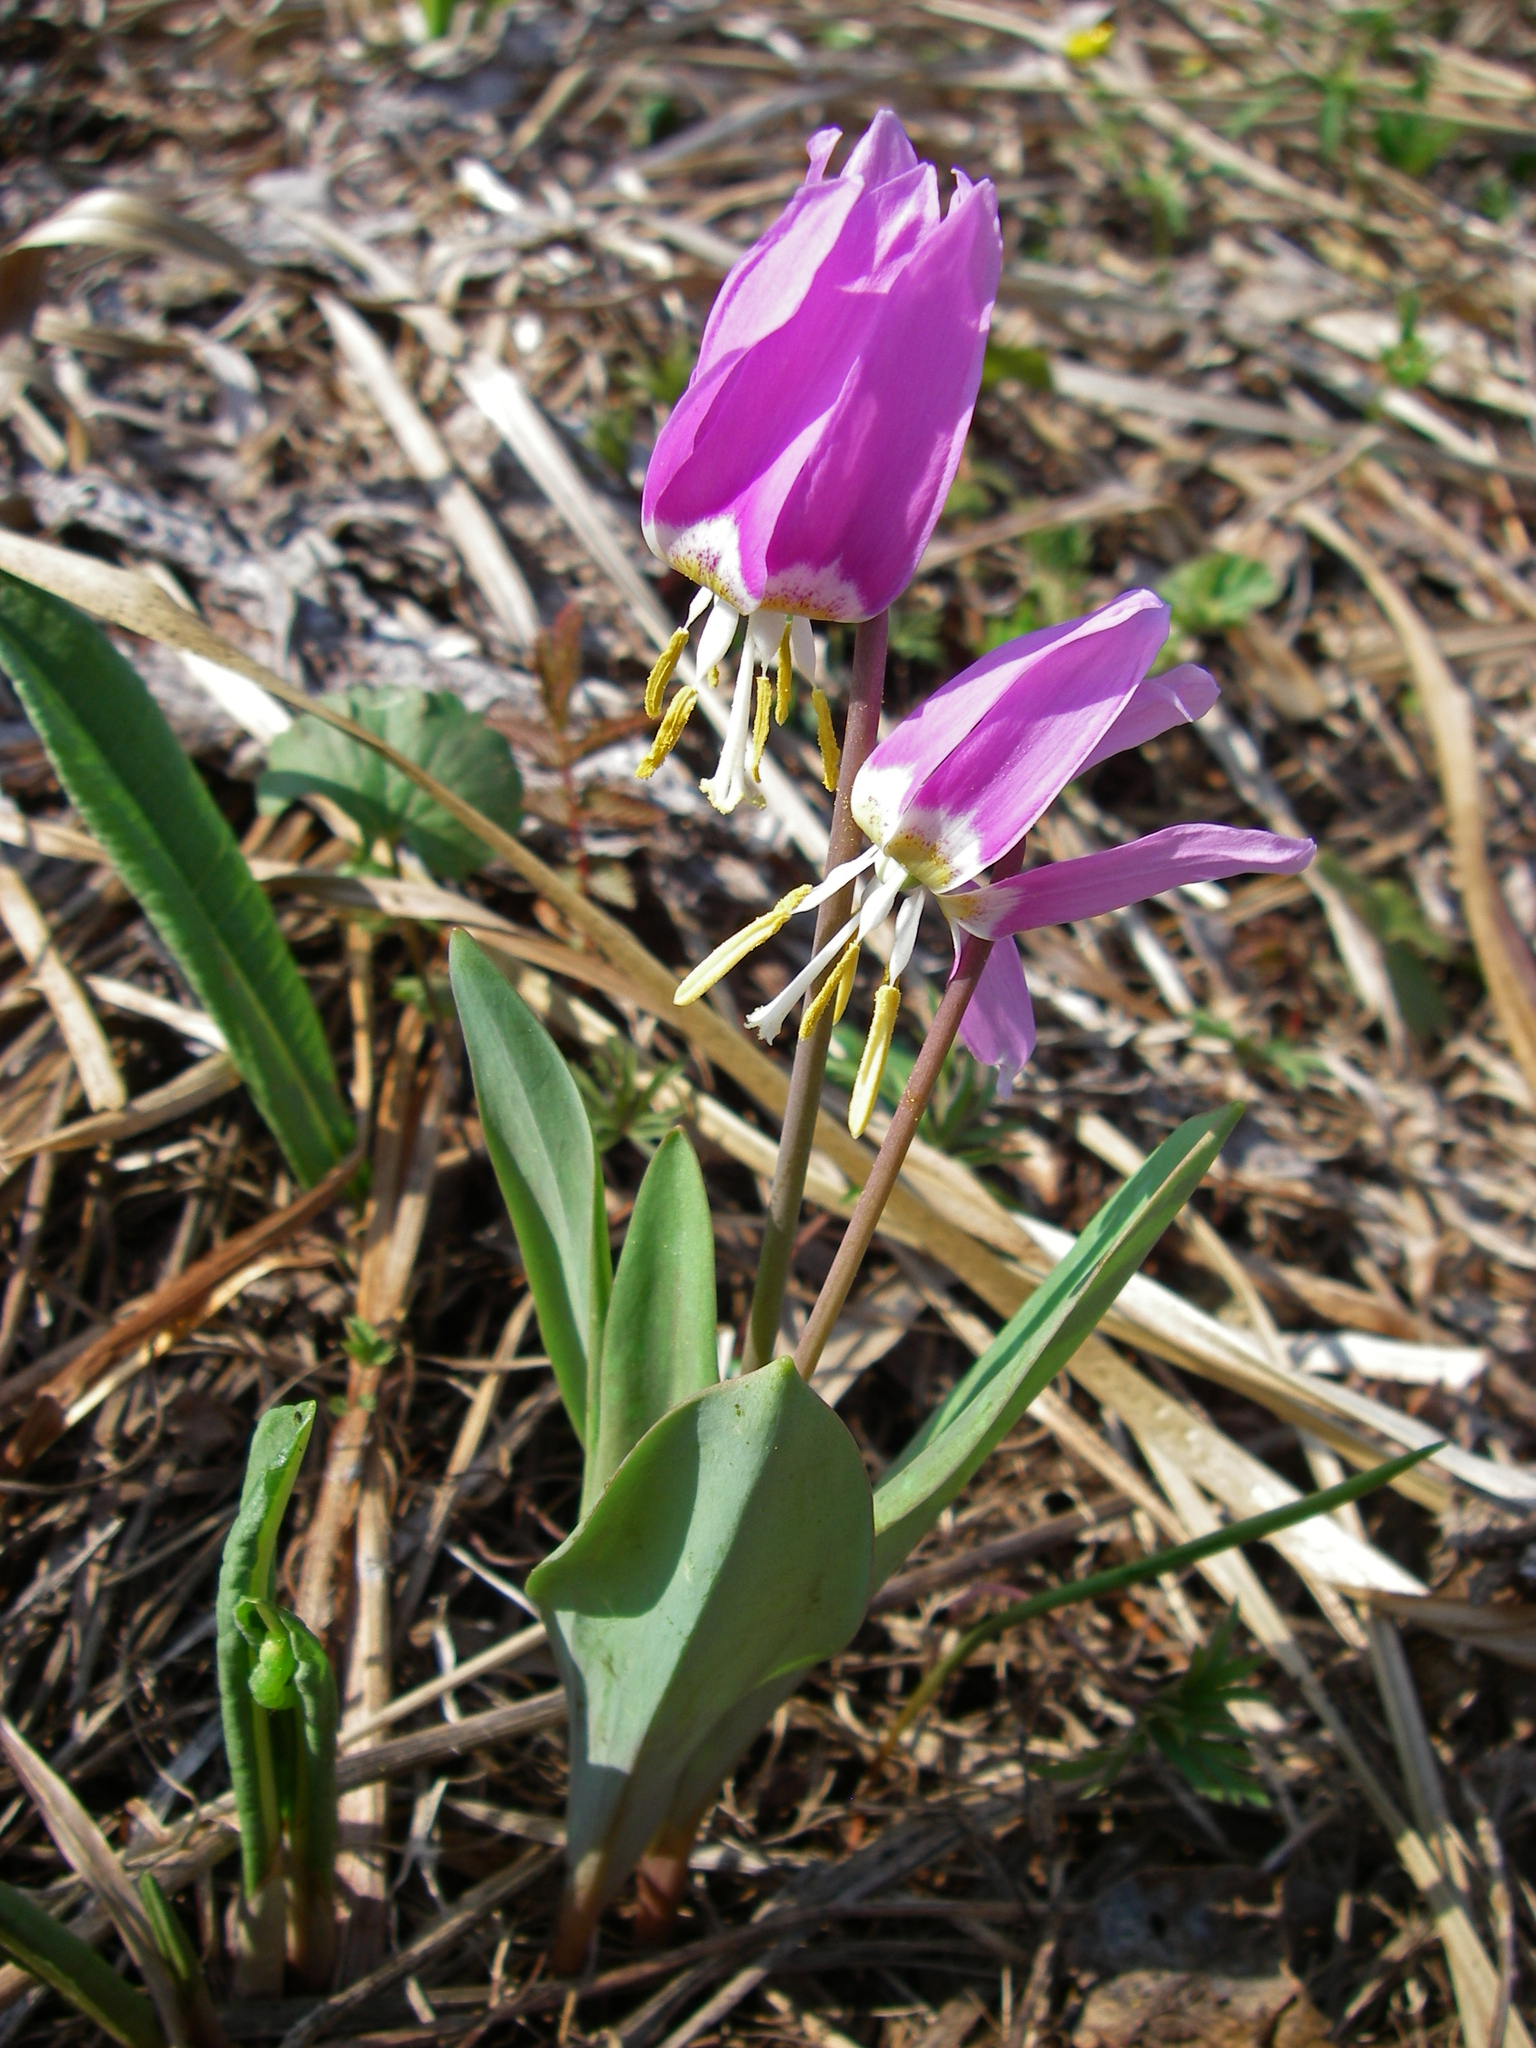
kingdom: Plantae
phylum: Tracheophyta
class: Liliopsida
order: Liliales
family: Liliaceae
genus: Erythronium
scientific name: Erythronium sibiricum
